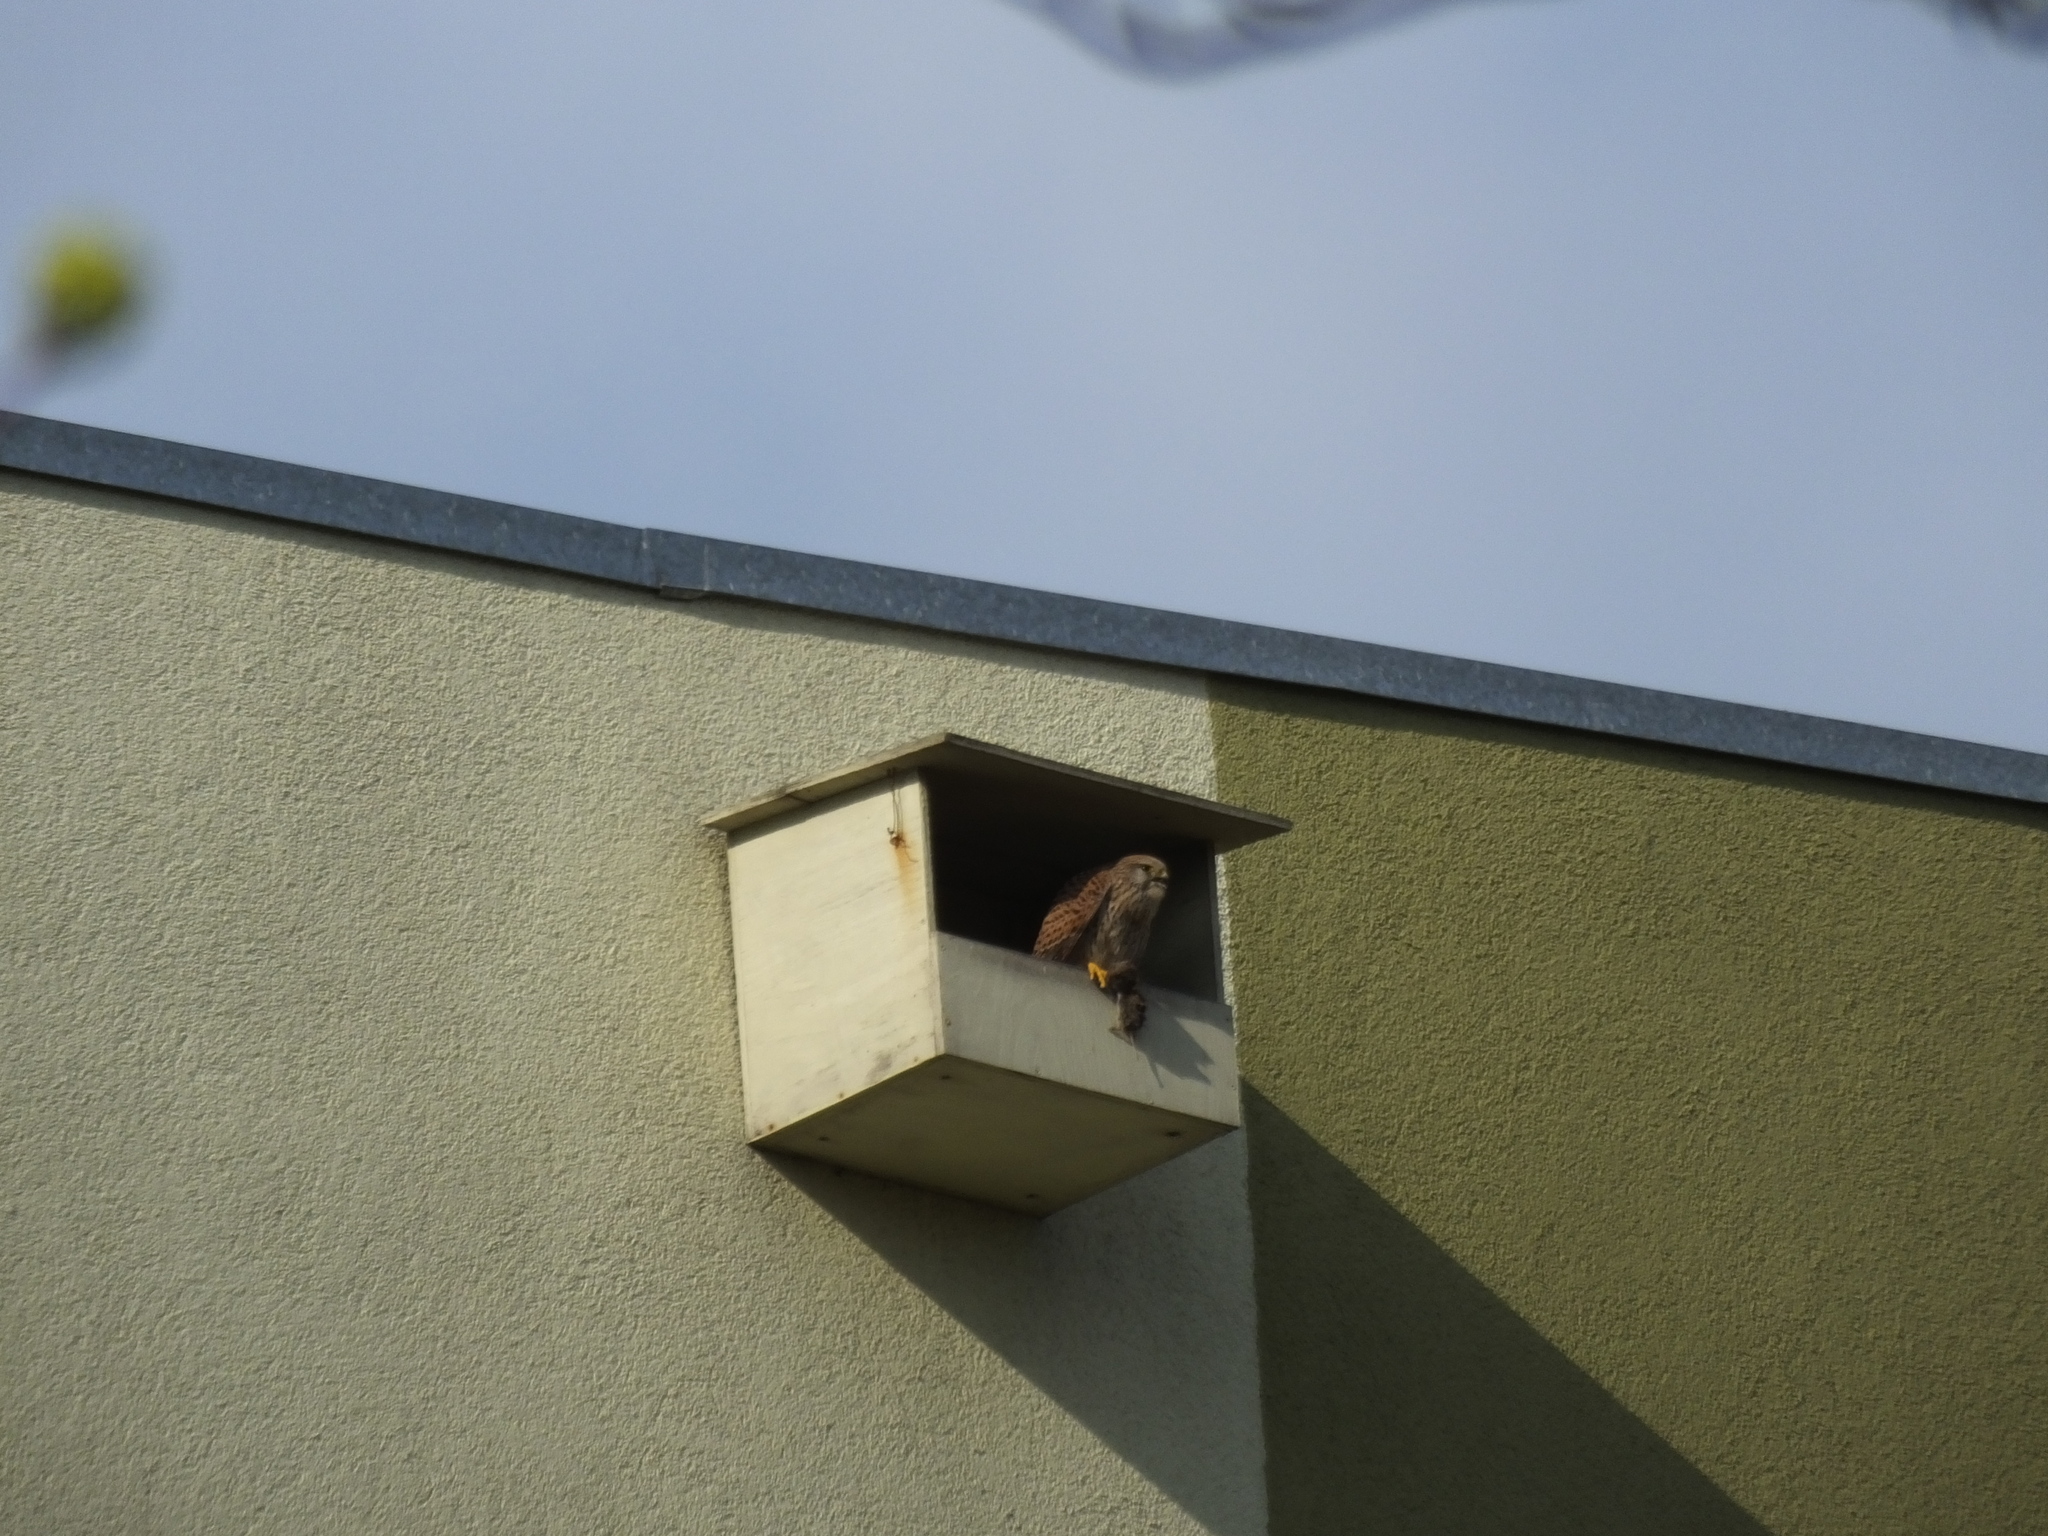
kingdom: Animalia
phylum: Chordata
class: Aves
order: Falconiformes
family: Falconidae
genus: Falco
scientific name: Falco tinnunculus
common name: Common kestrel
